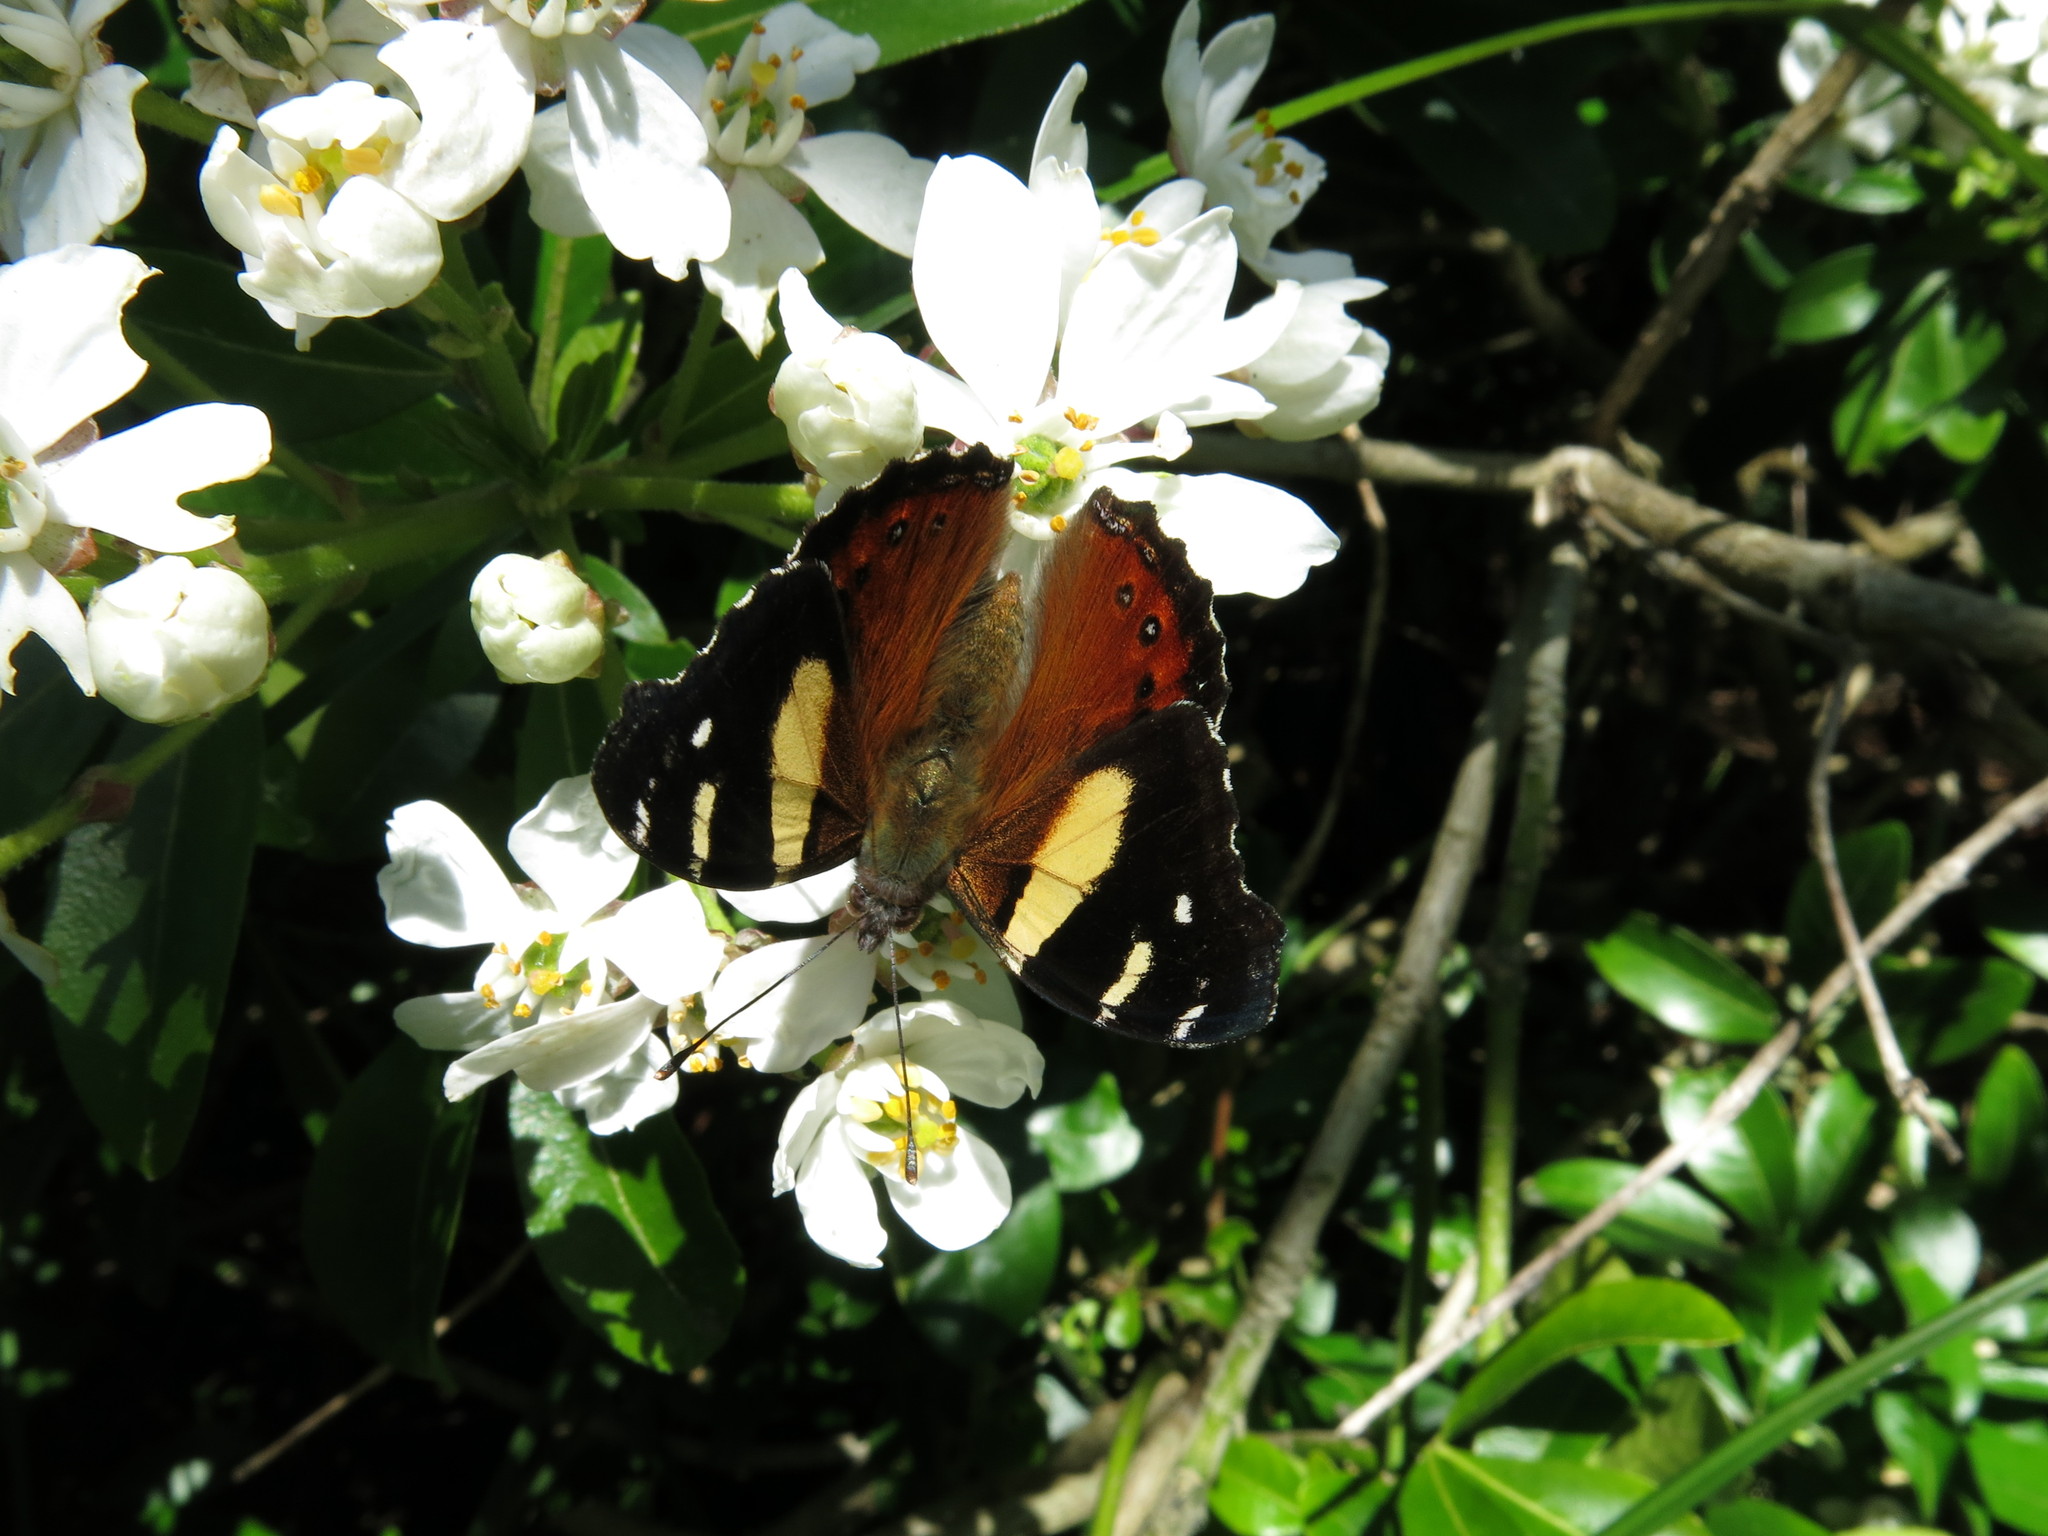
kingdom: Animalia
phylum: Arthropoda
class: Insecta
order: Lepidoptera
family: Nymphalidae
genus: Vanessa
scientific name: Vanessa itea
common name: Yellow admiral
